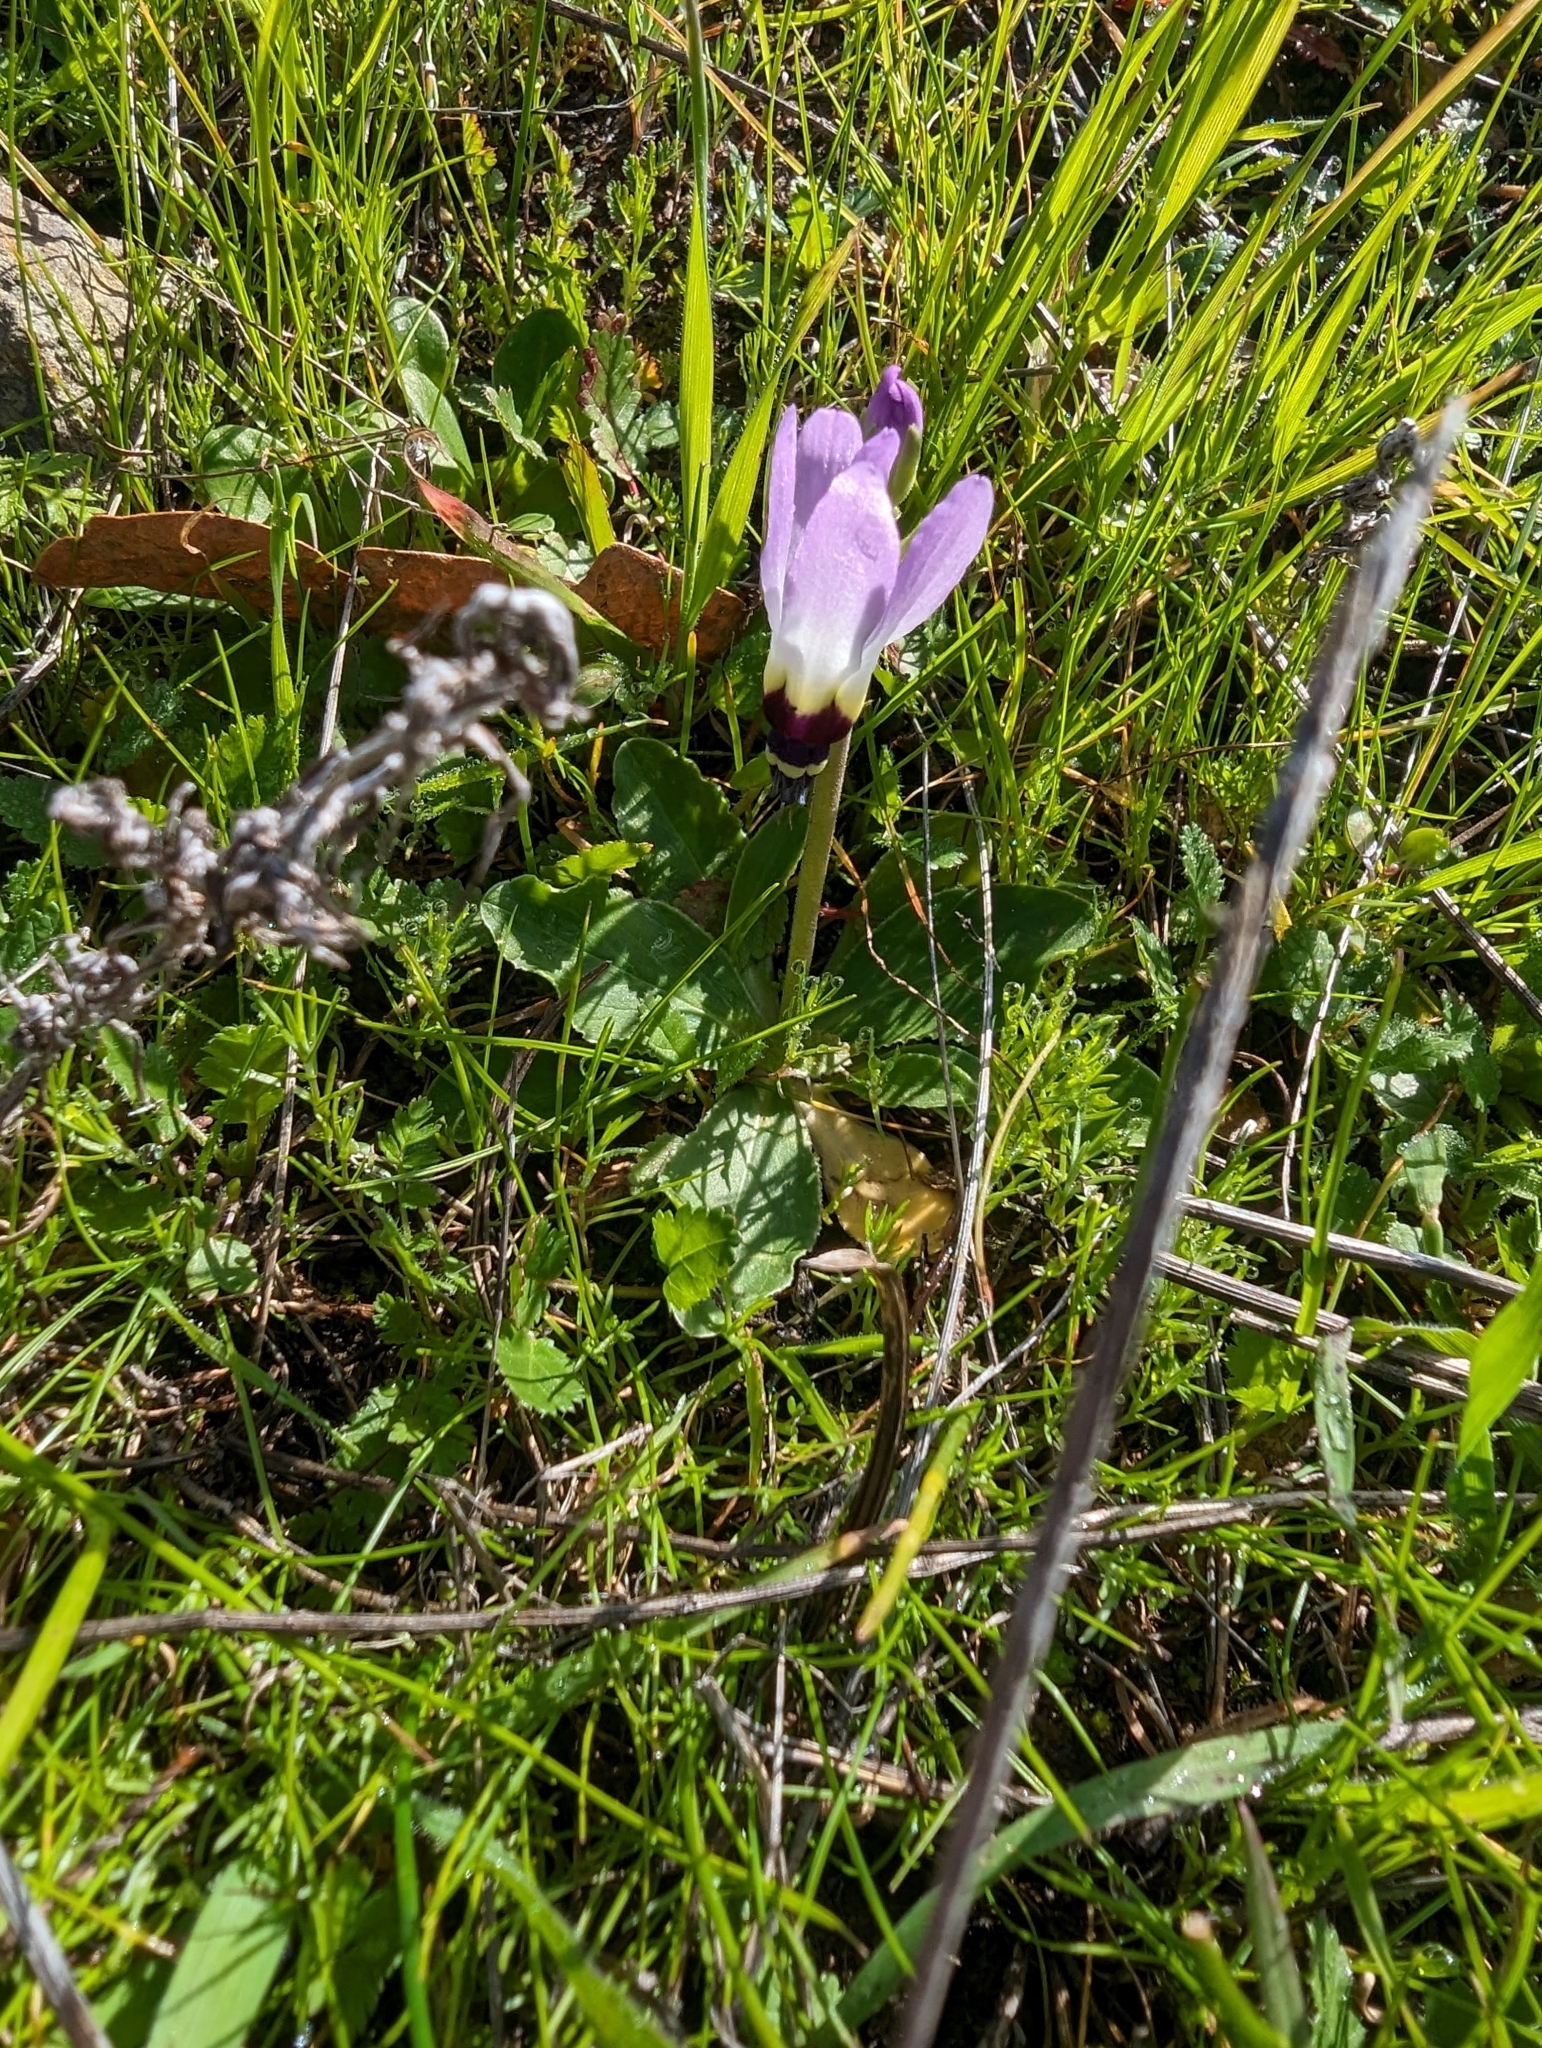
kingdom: Plantae
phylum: Tracheophyta
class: Magnoliopsida
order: Ericales
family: Primulaceae
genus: Dodecatheon
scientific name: Dodecatheon clevelandii
